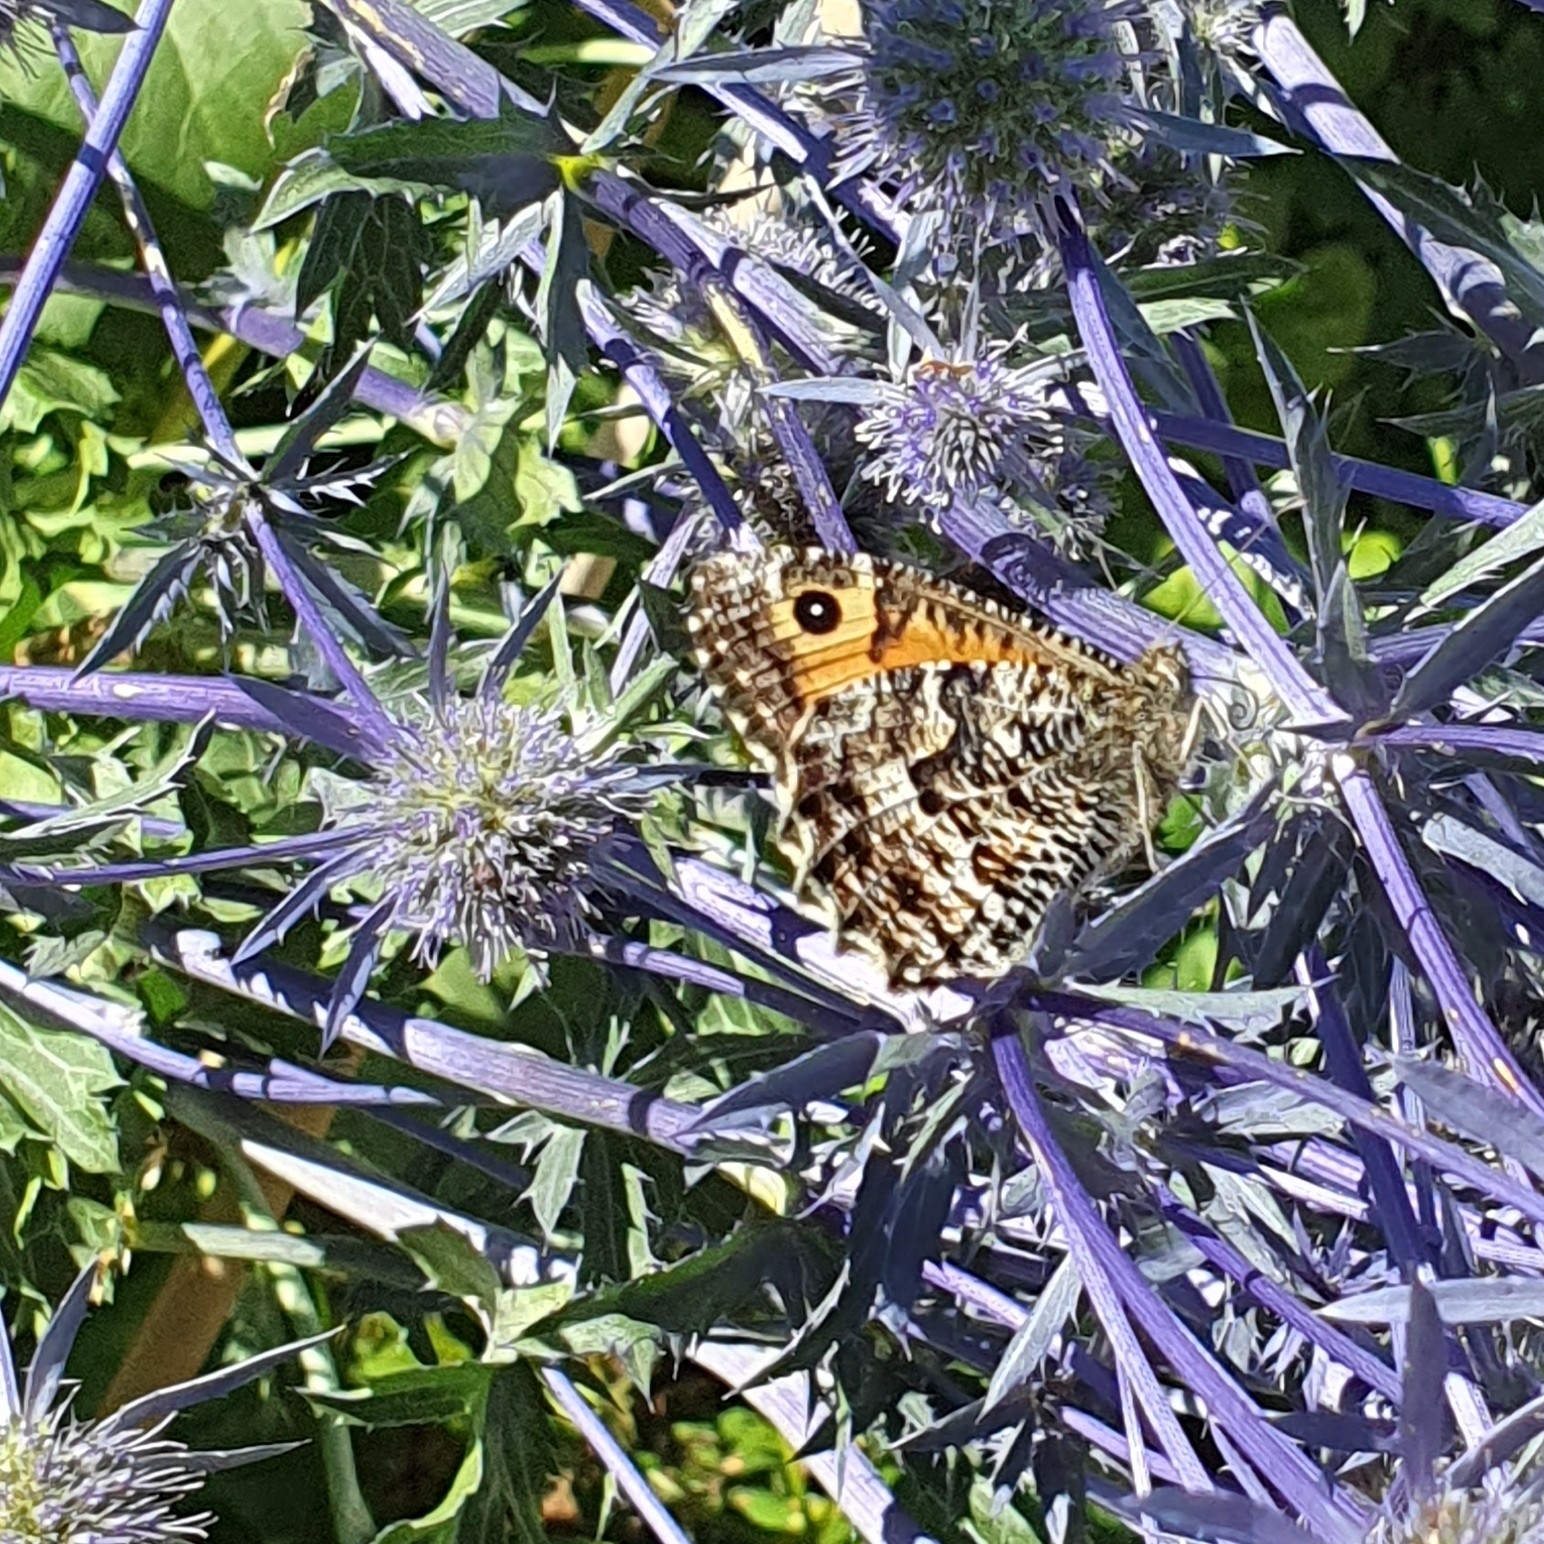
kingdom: Animalia
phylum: Arthropoda
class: Insecta
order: Lepidoptera
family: Nymphalidae
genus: Hipparchia
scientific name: Hipparchia semele
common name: Grayling
